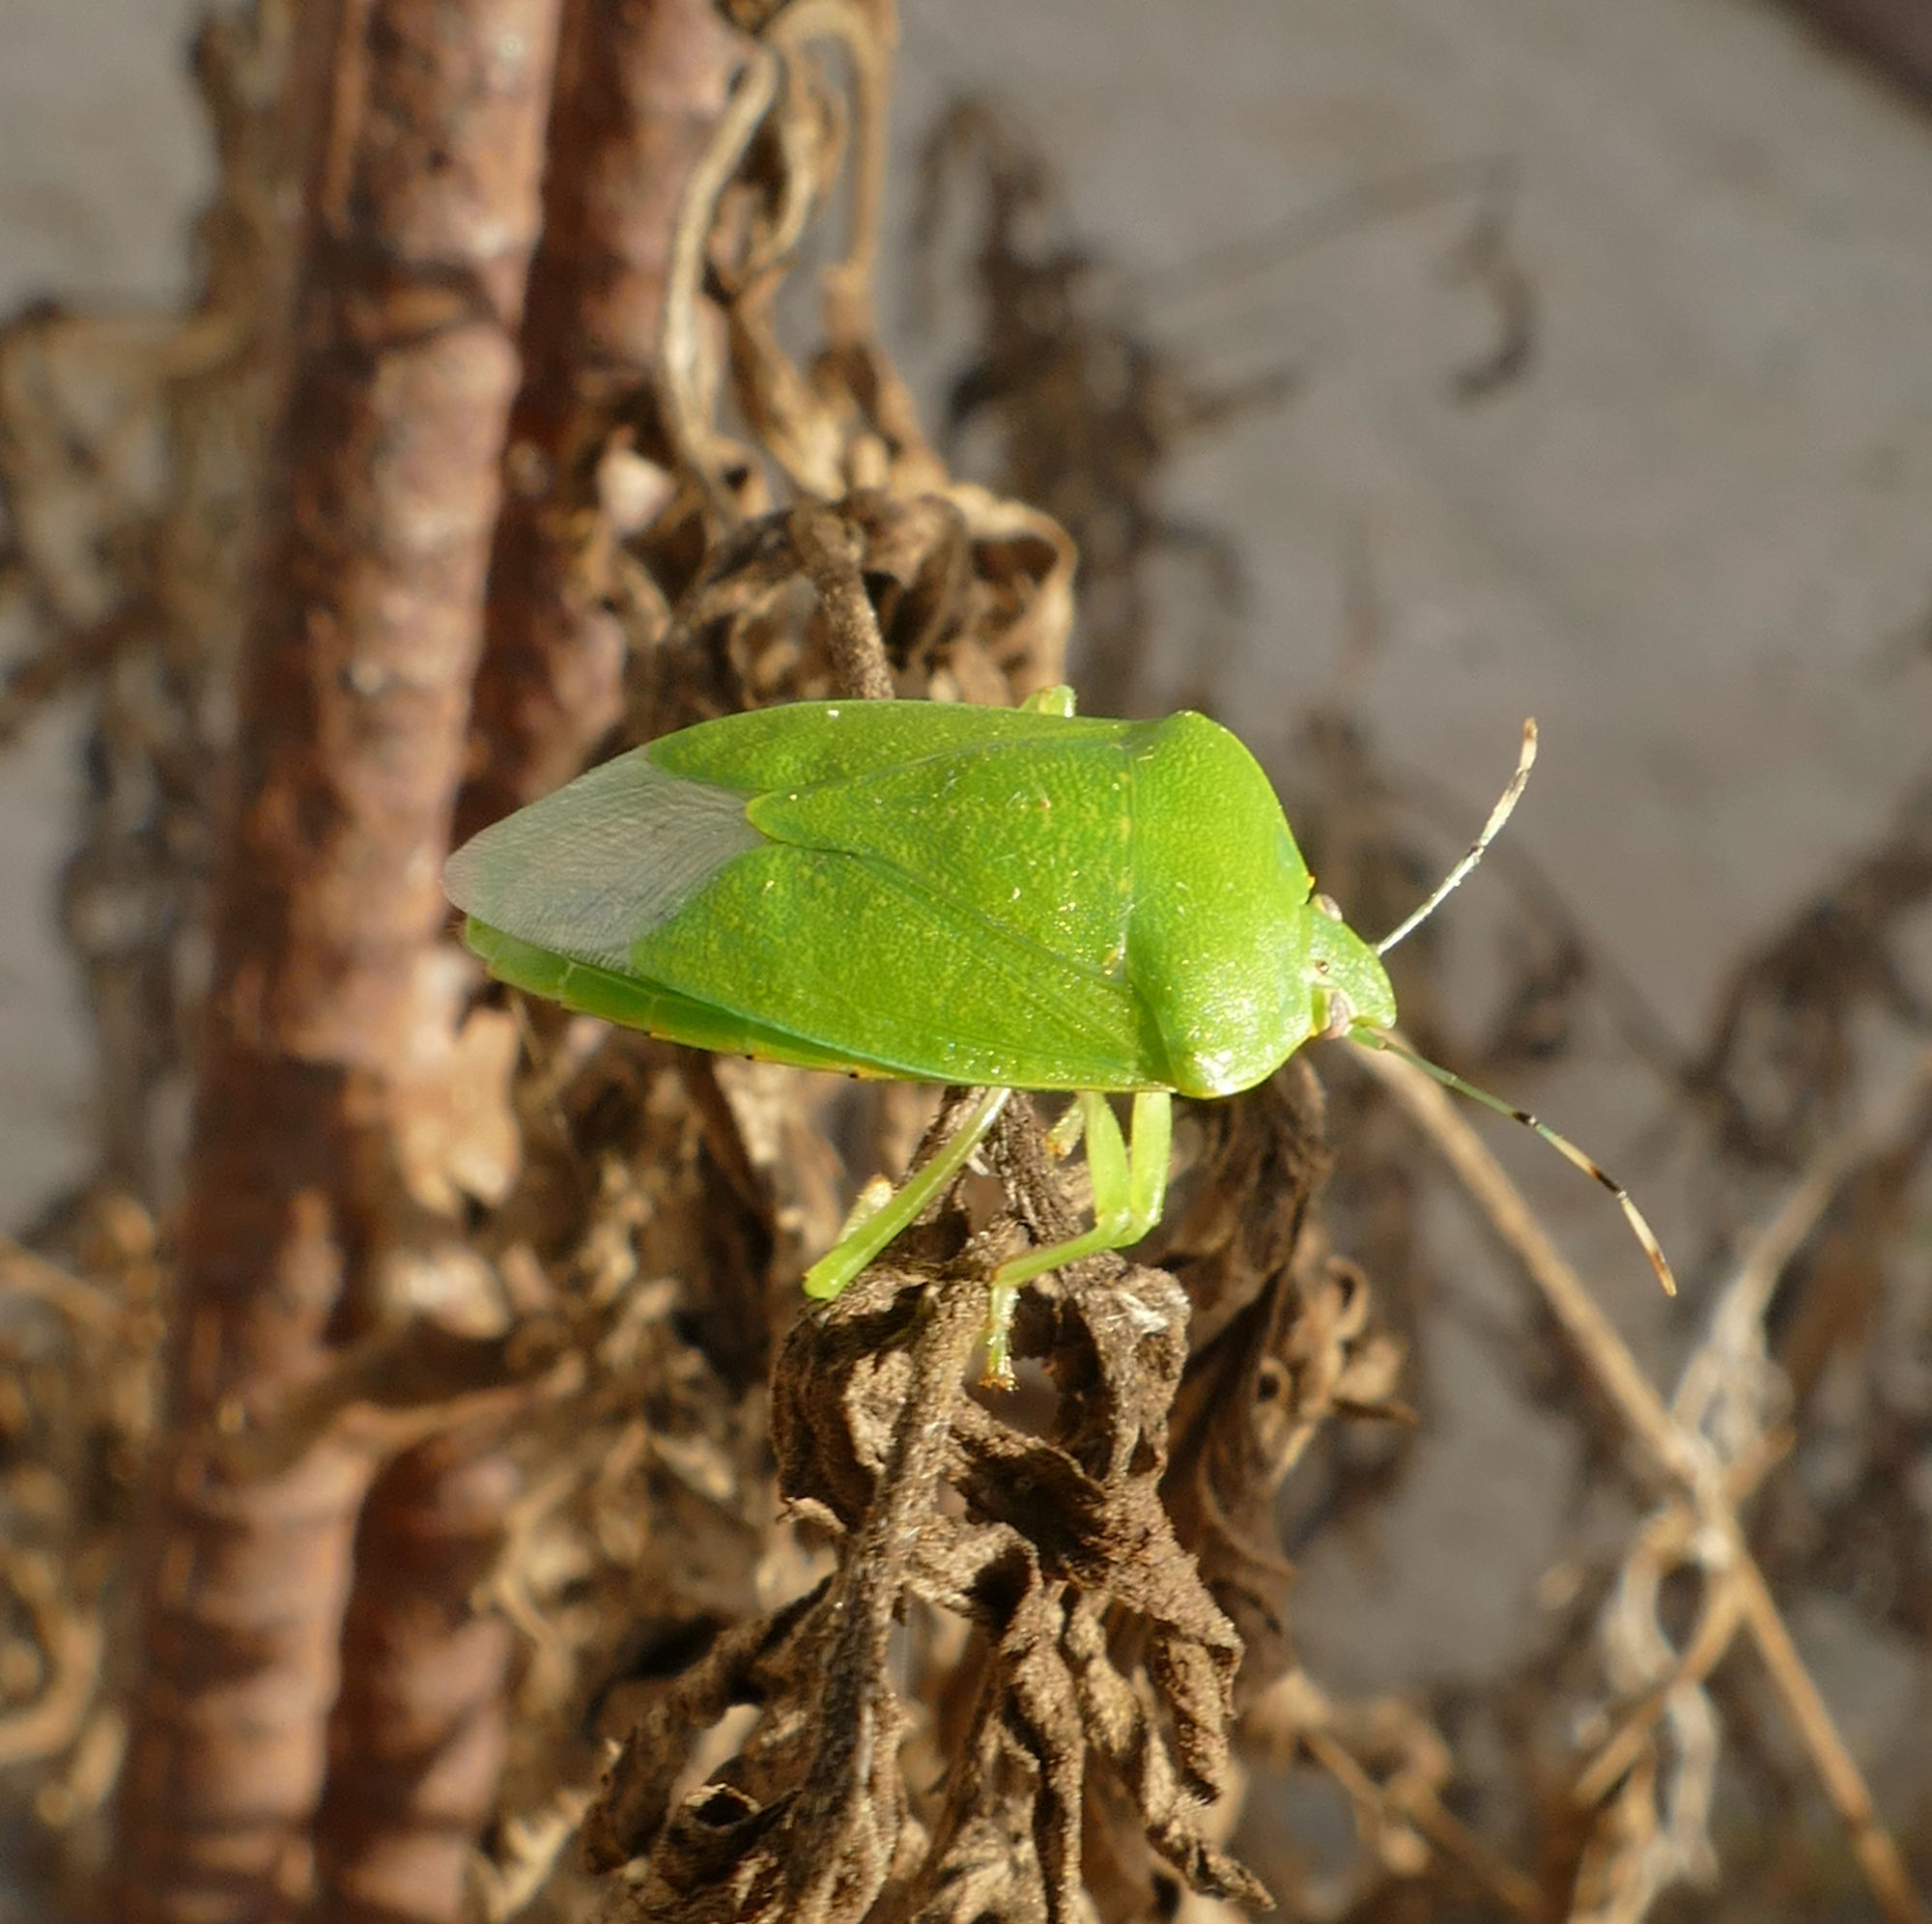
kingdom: Animalia
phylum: Arthropoda
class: Insecta
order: Hemiptera
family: Pentatomidae
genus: Chinavia
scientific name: Chinavia hilaris
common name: Green stink bug
